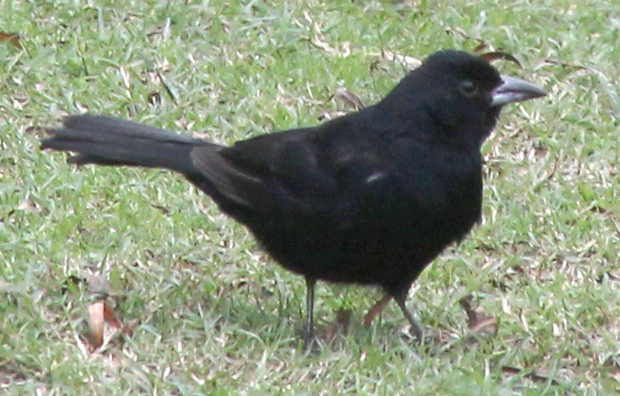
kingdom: Animalia
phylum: Chordata
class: Aves
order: Passeriformes
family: Thraupidae
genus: Tachyphonus
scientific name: Tachyphonus rufus
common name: White-lined tanager
